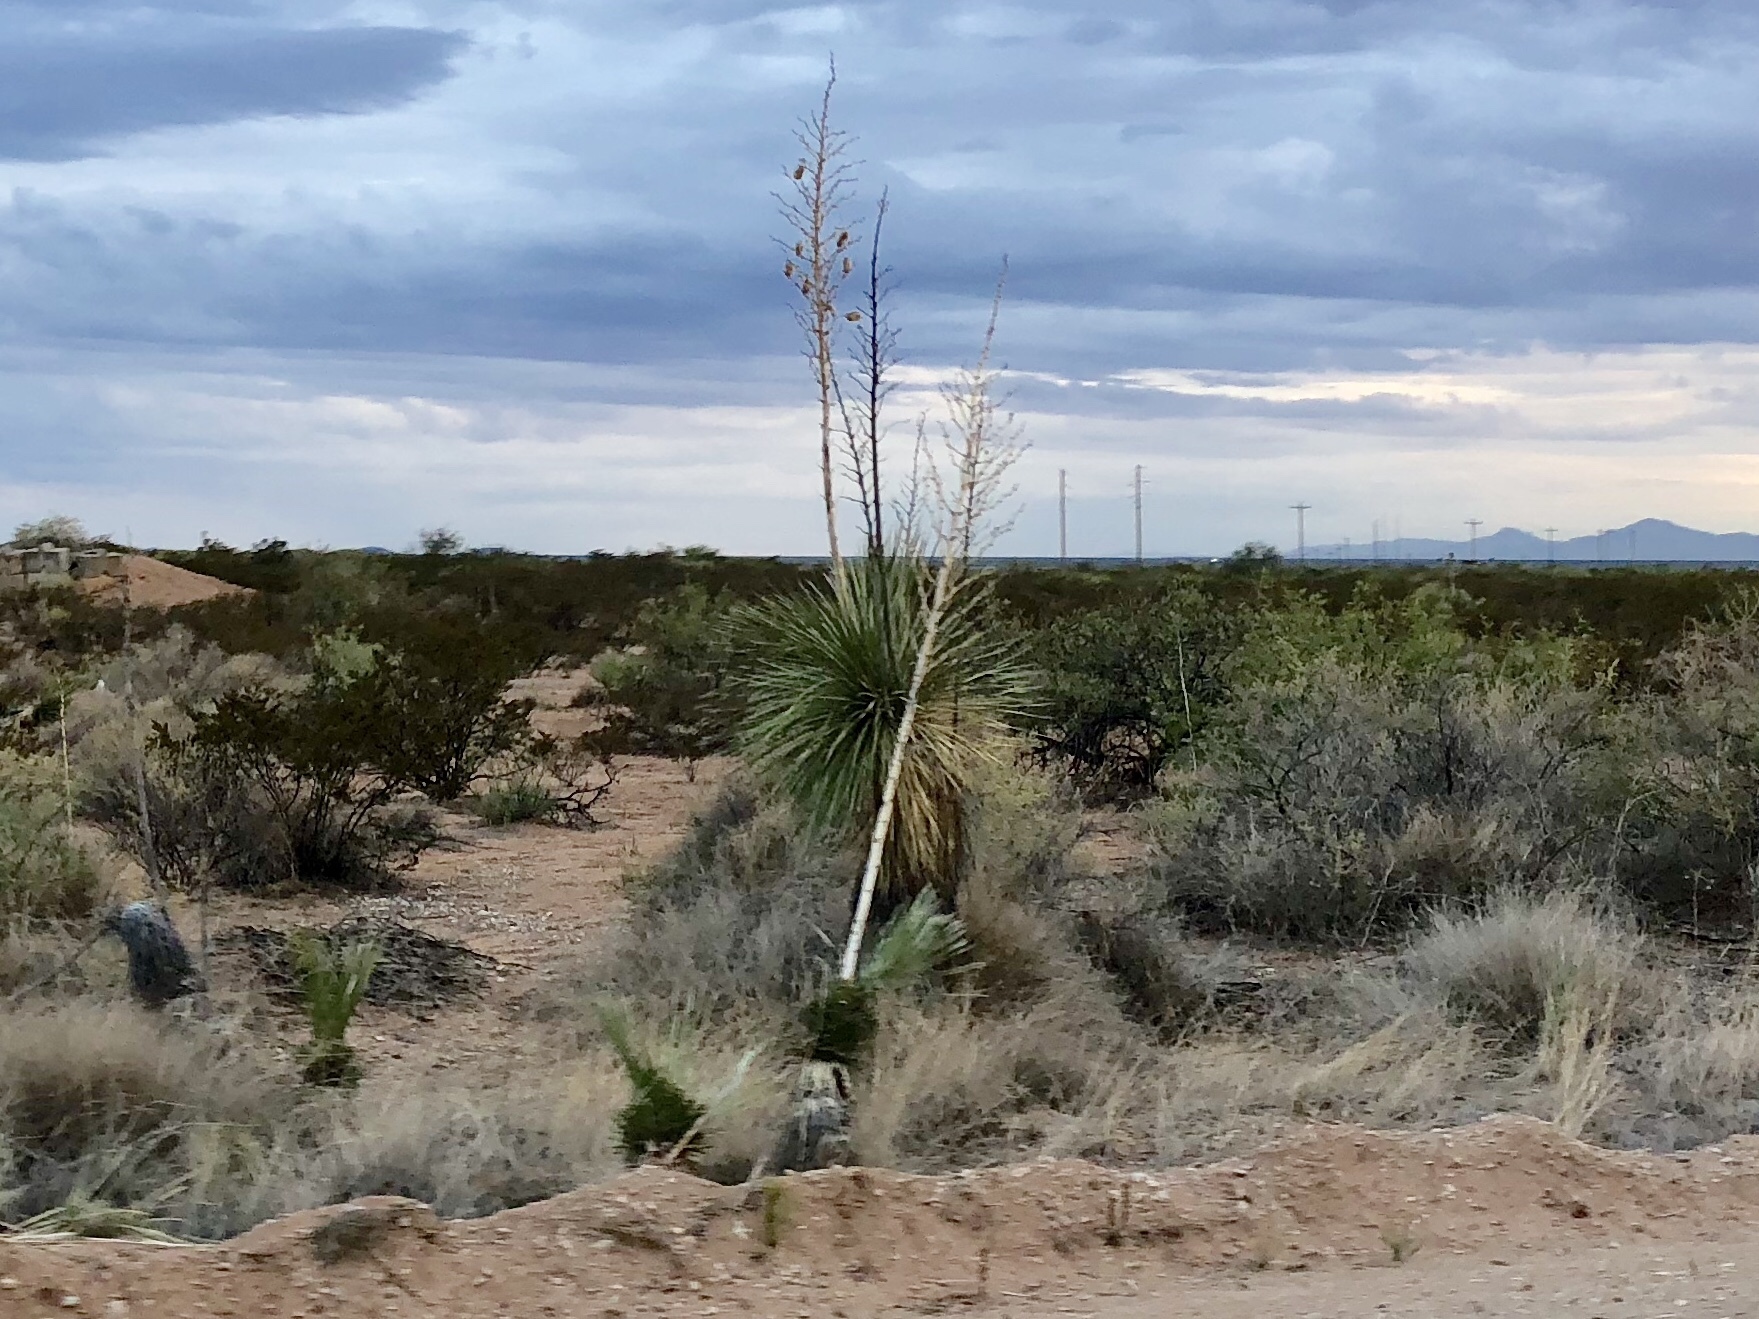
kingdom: Plantae
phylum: Tracheophyta
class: Liliopsida
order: Asparagales
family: Asparagaceae
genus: Yucca
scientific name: Yucca elata
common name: Palmella
